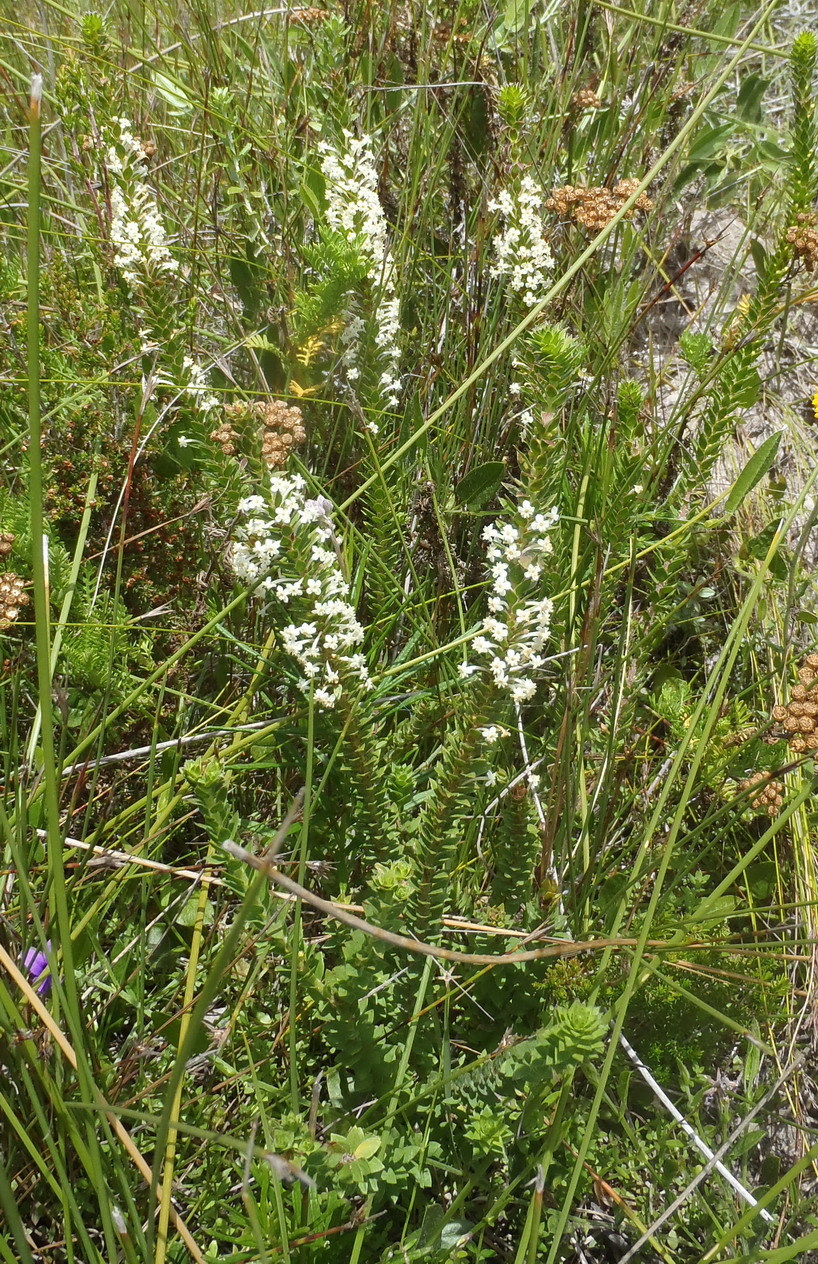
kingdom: Plantae
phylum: Tracheophyta
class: Magnoliopsida
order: Malvales
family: Thymelaeaceae
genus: Struthiola
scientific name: Struthiola hirsuta
